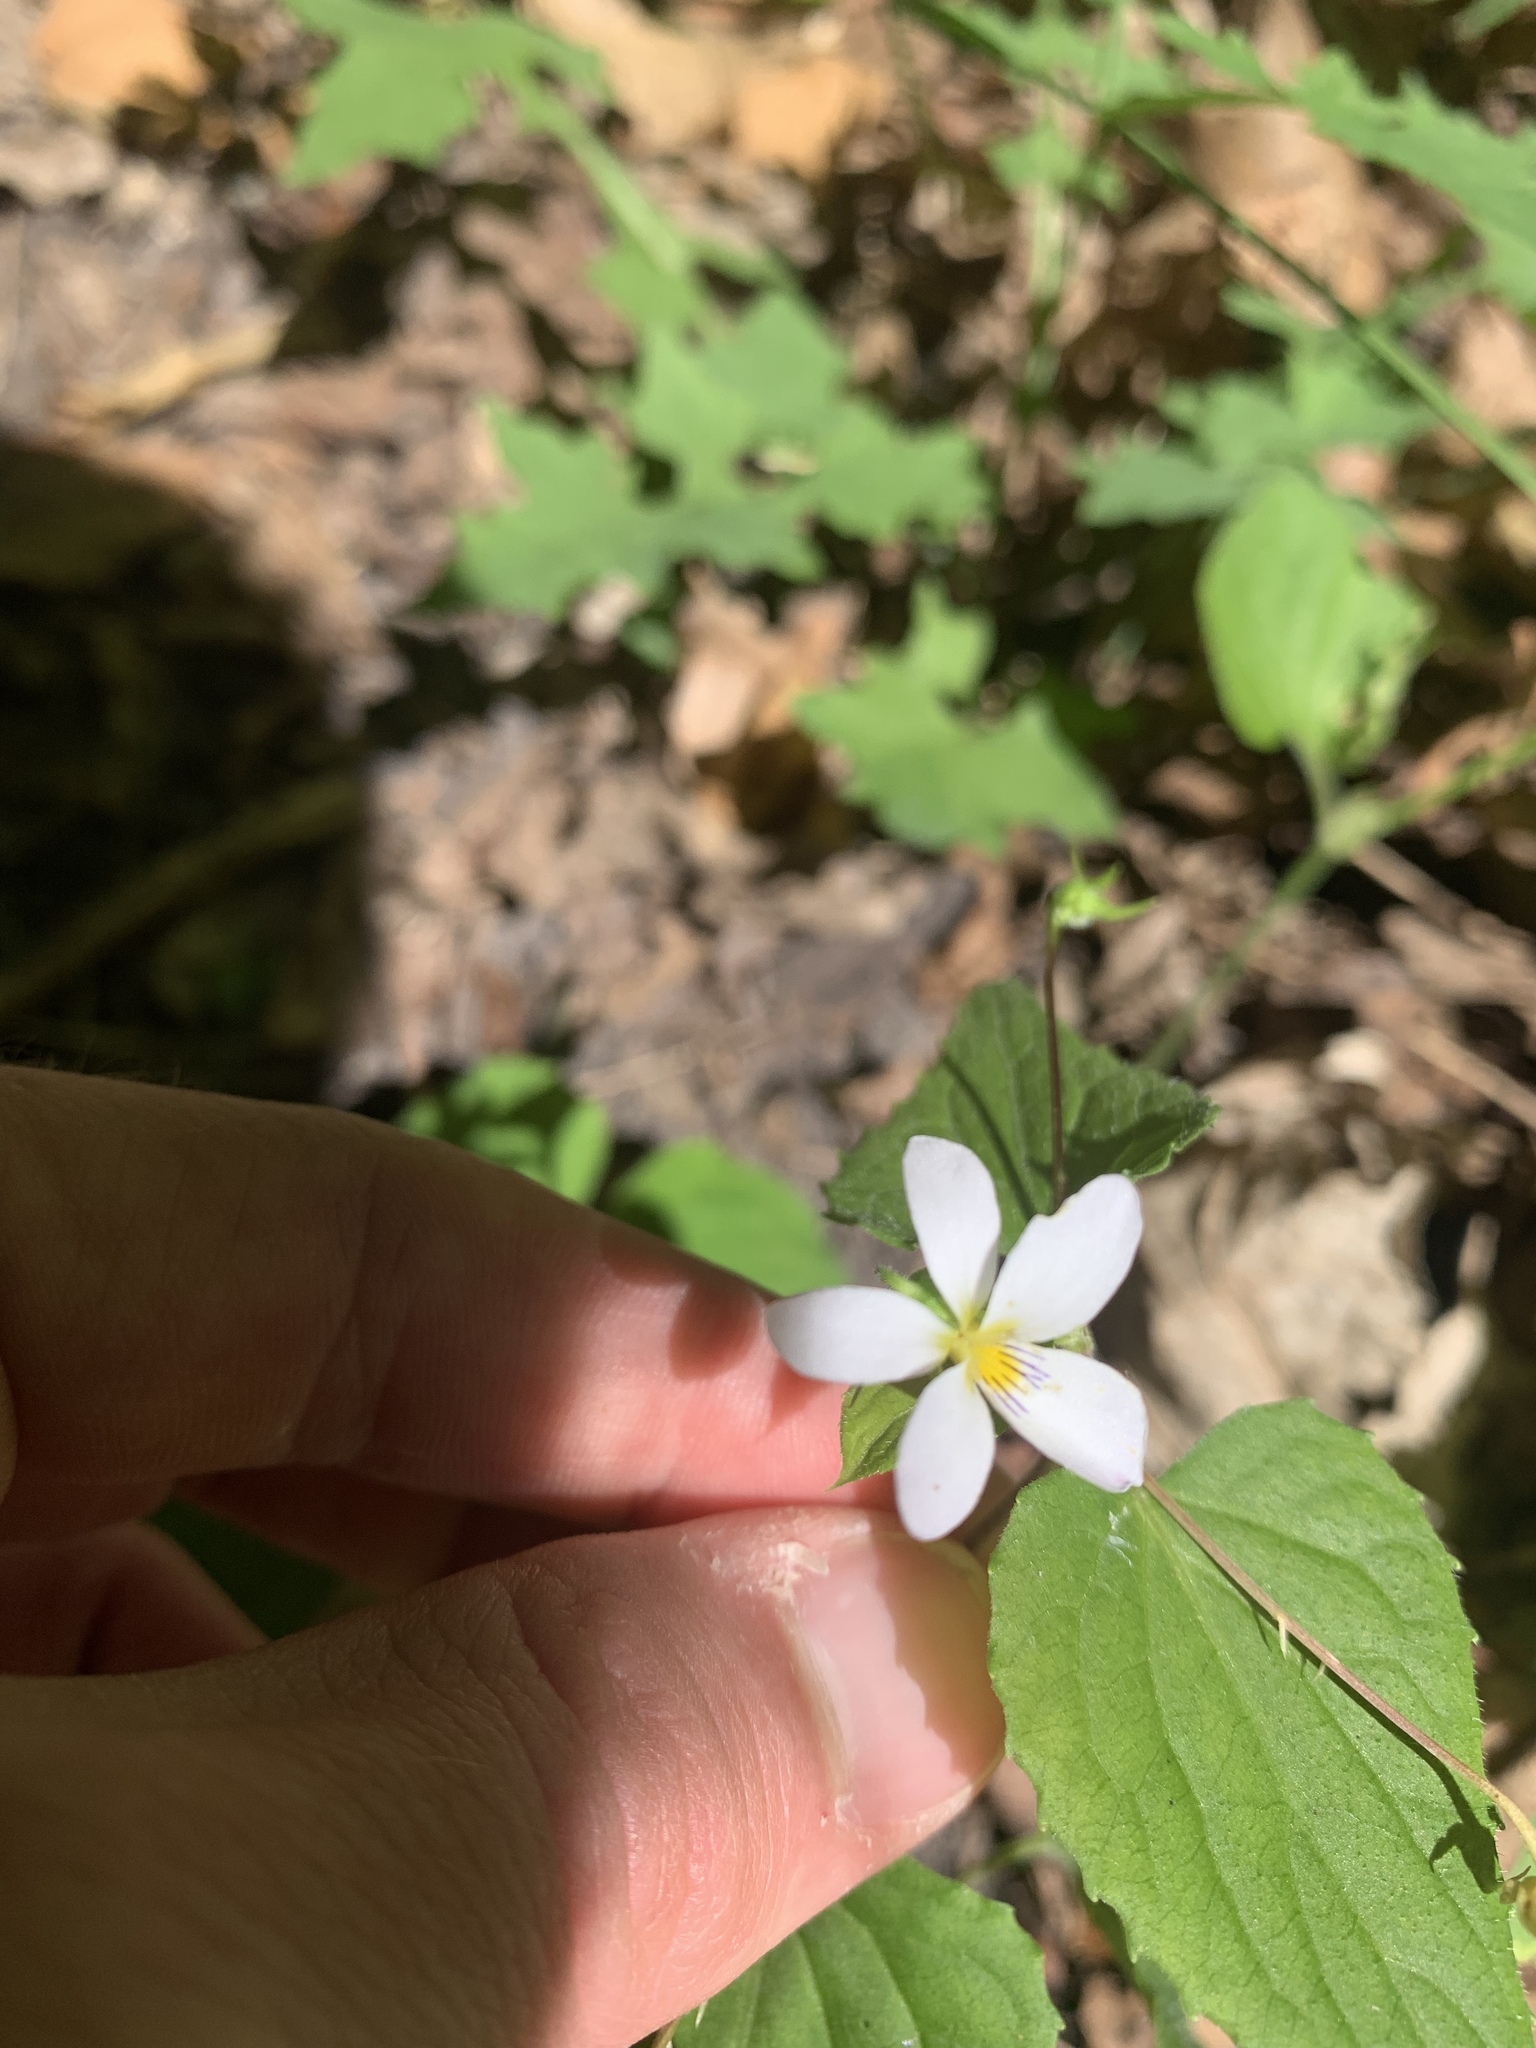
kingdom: Plantae
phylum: Tracheophyta
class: Magnoliopsida
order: Malpighiales
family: Violaceae
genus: Viola
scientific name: Viola canadensis
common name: Canada violet
